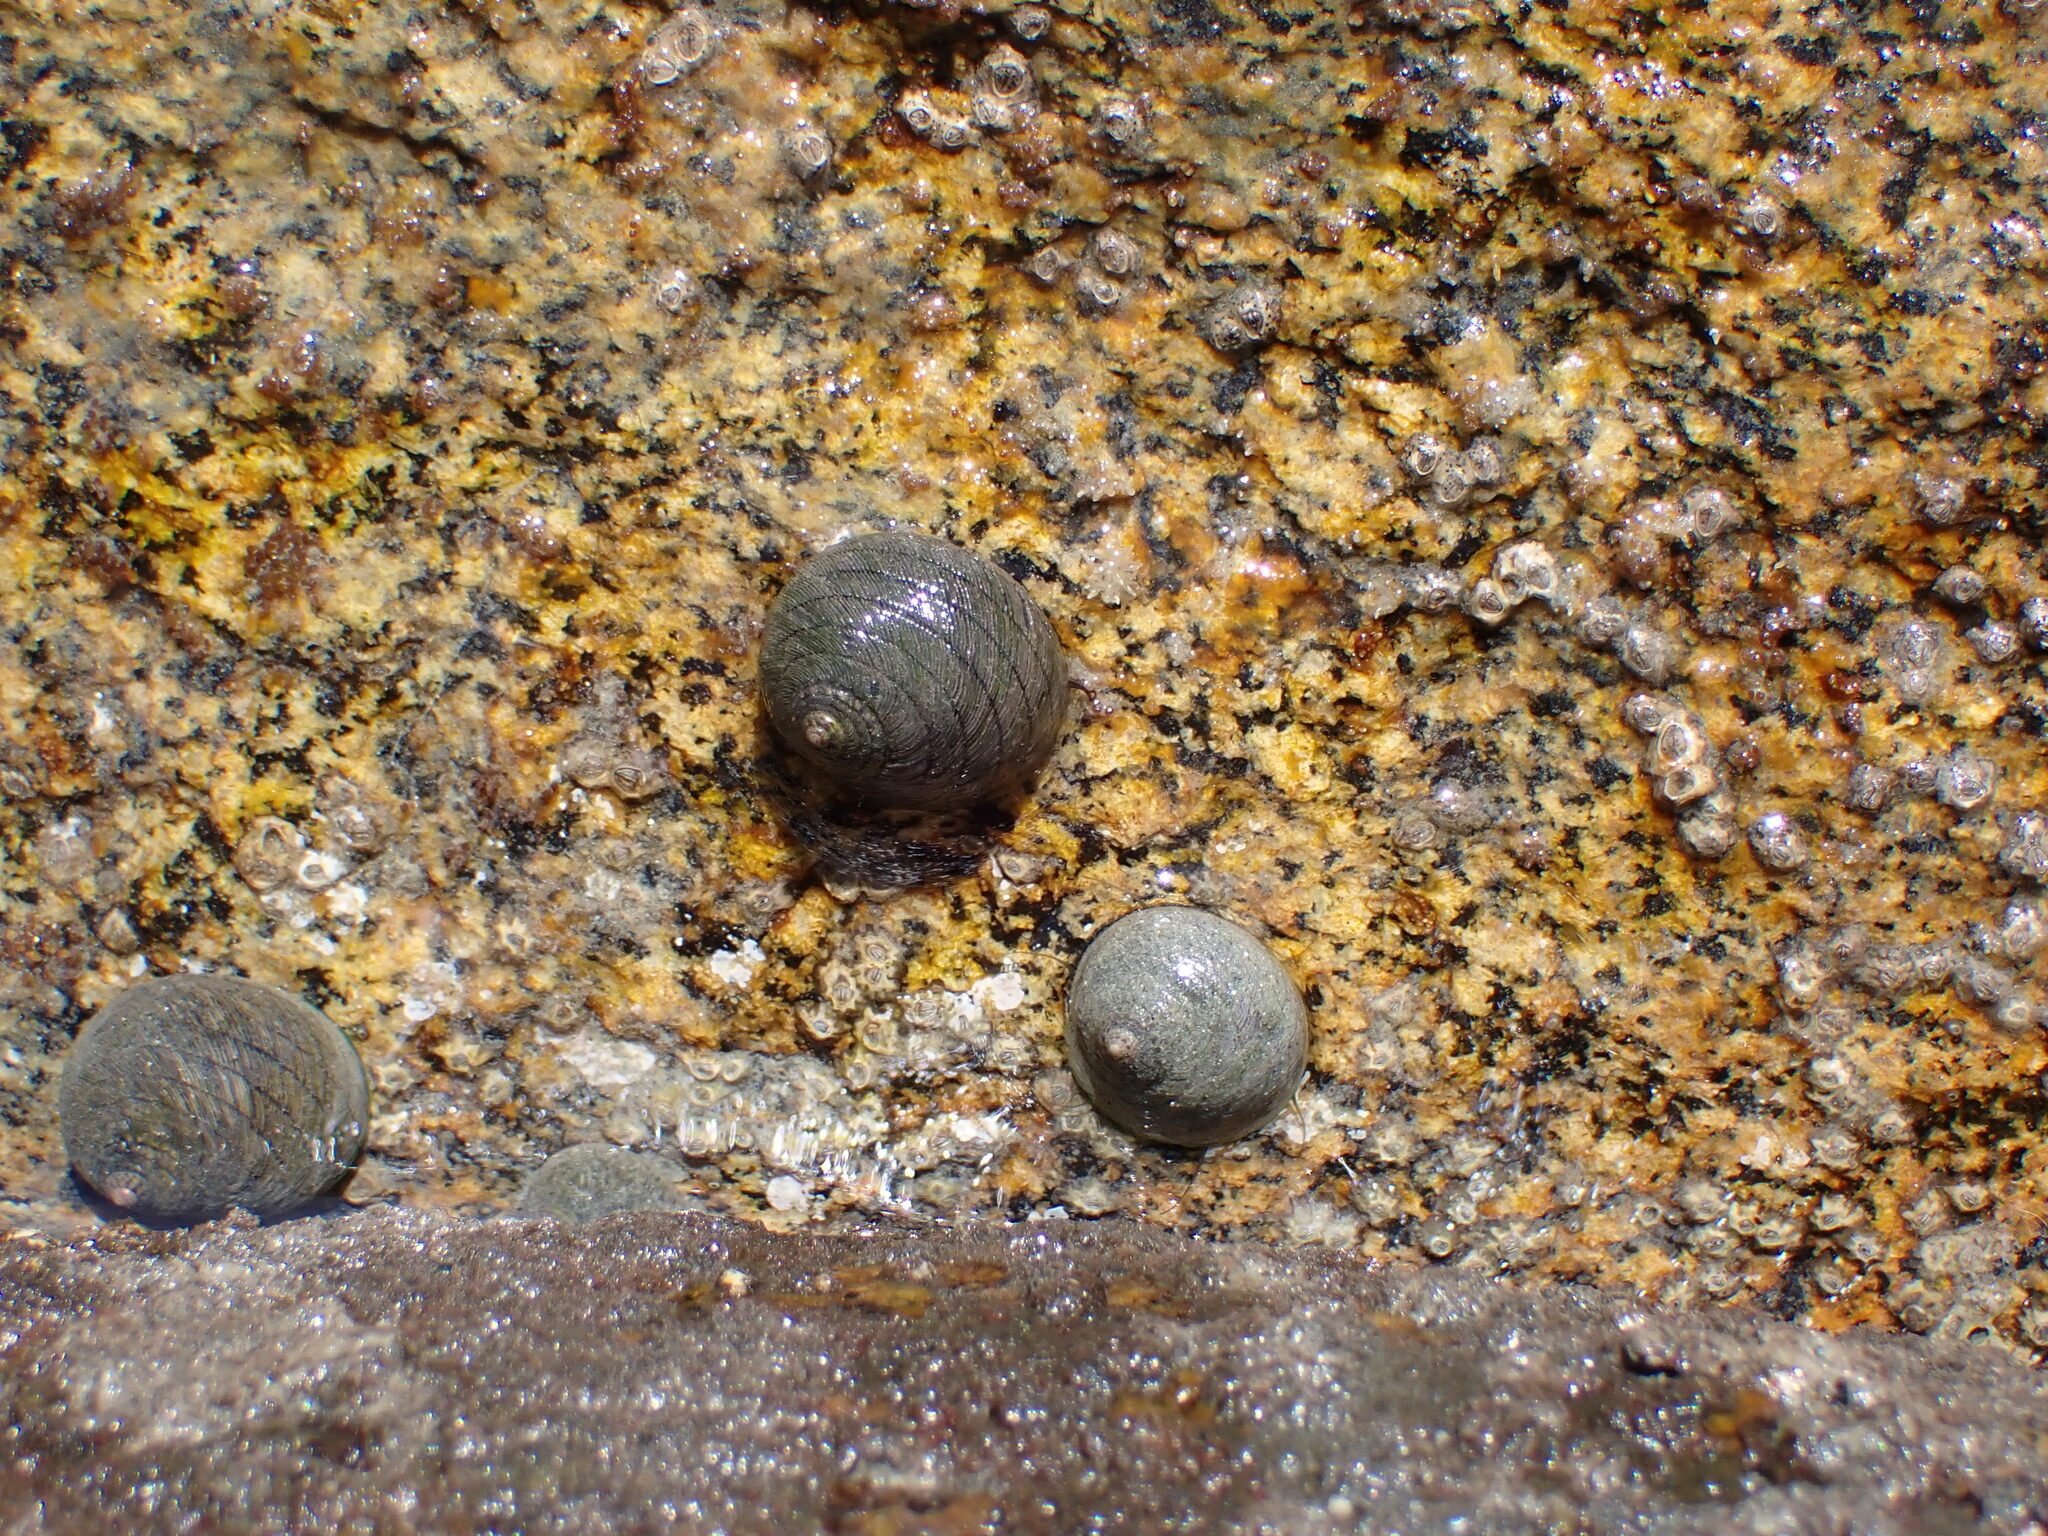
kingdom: Animalia
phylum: Mollusca
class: Gastropoda
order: Trochida
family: Trochidae
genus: Diloma
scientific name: Diloma aethiops
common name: Scorched monodont
